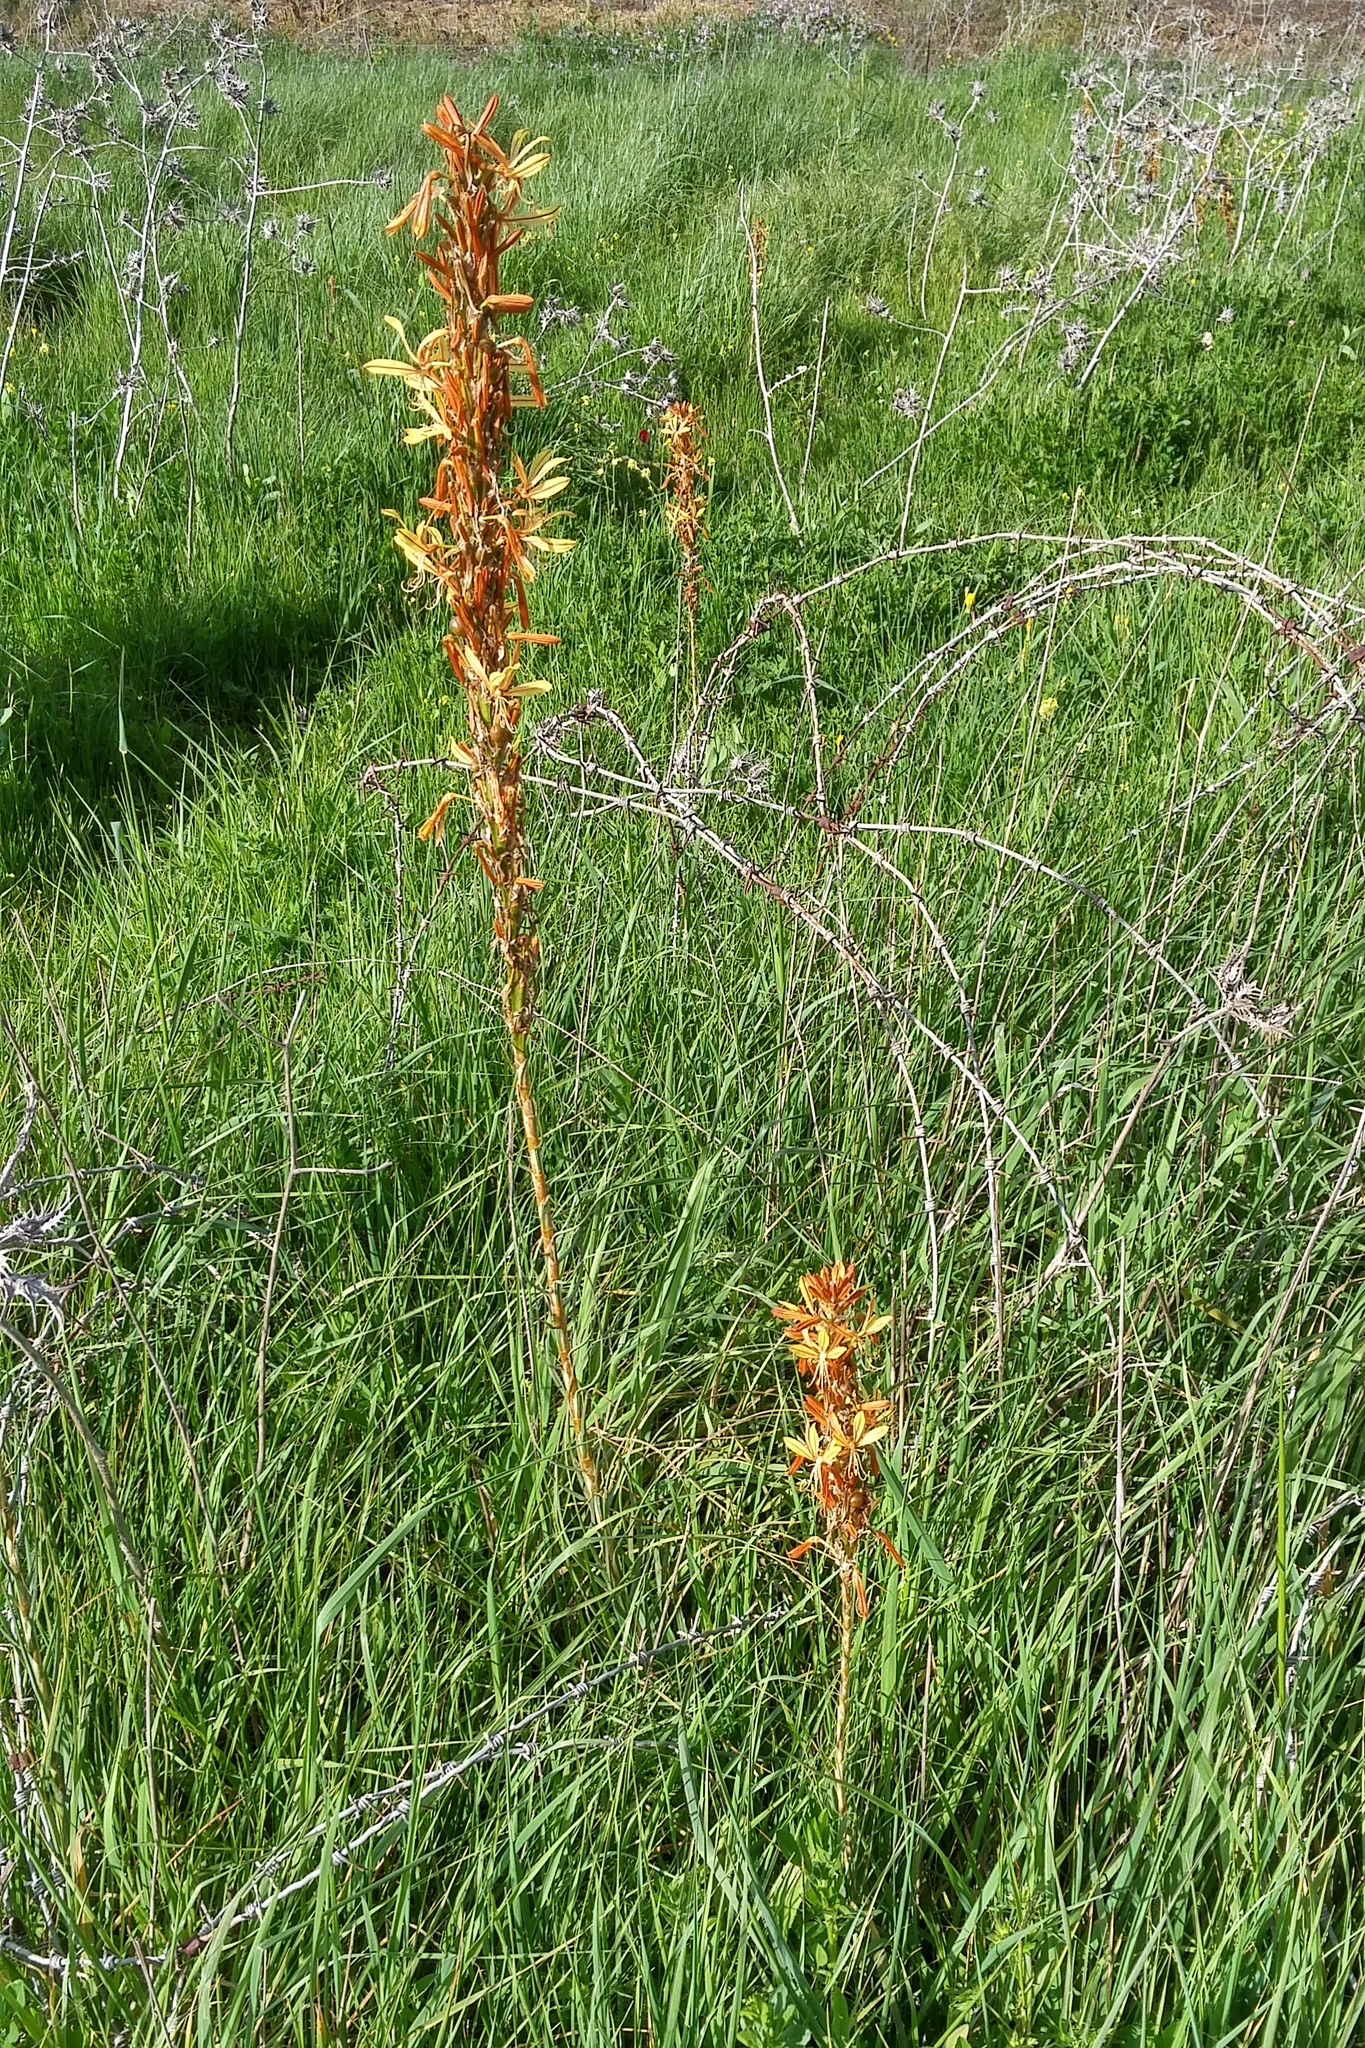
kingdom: Plantae
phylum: Tracheophyta
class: Liliopsida
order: Asparagales
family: Asphodelaceae
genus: Asphodeline
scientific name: Asphodeline lutea
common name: Yellow asphodel
